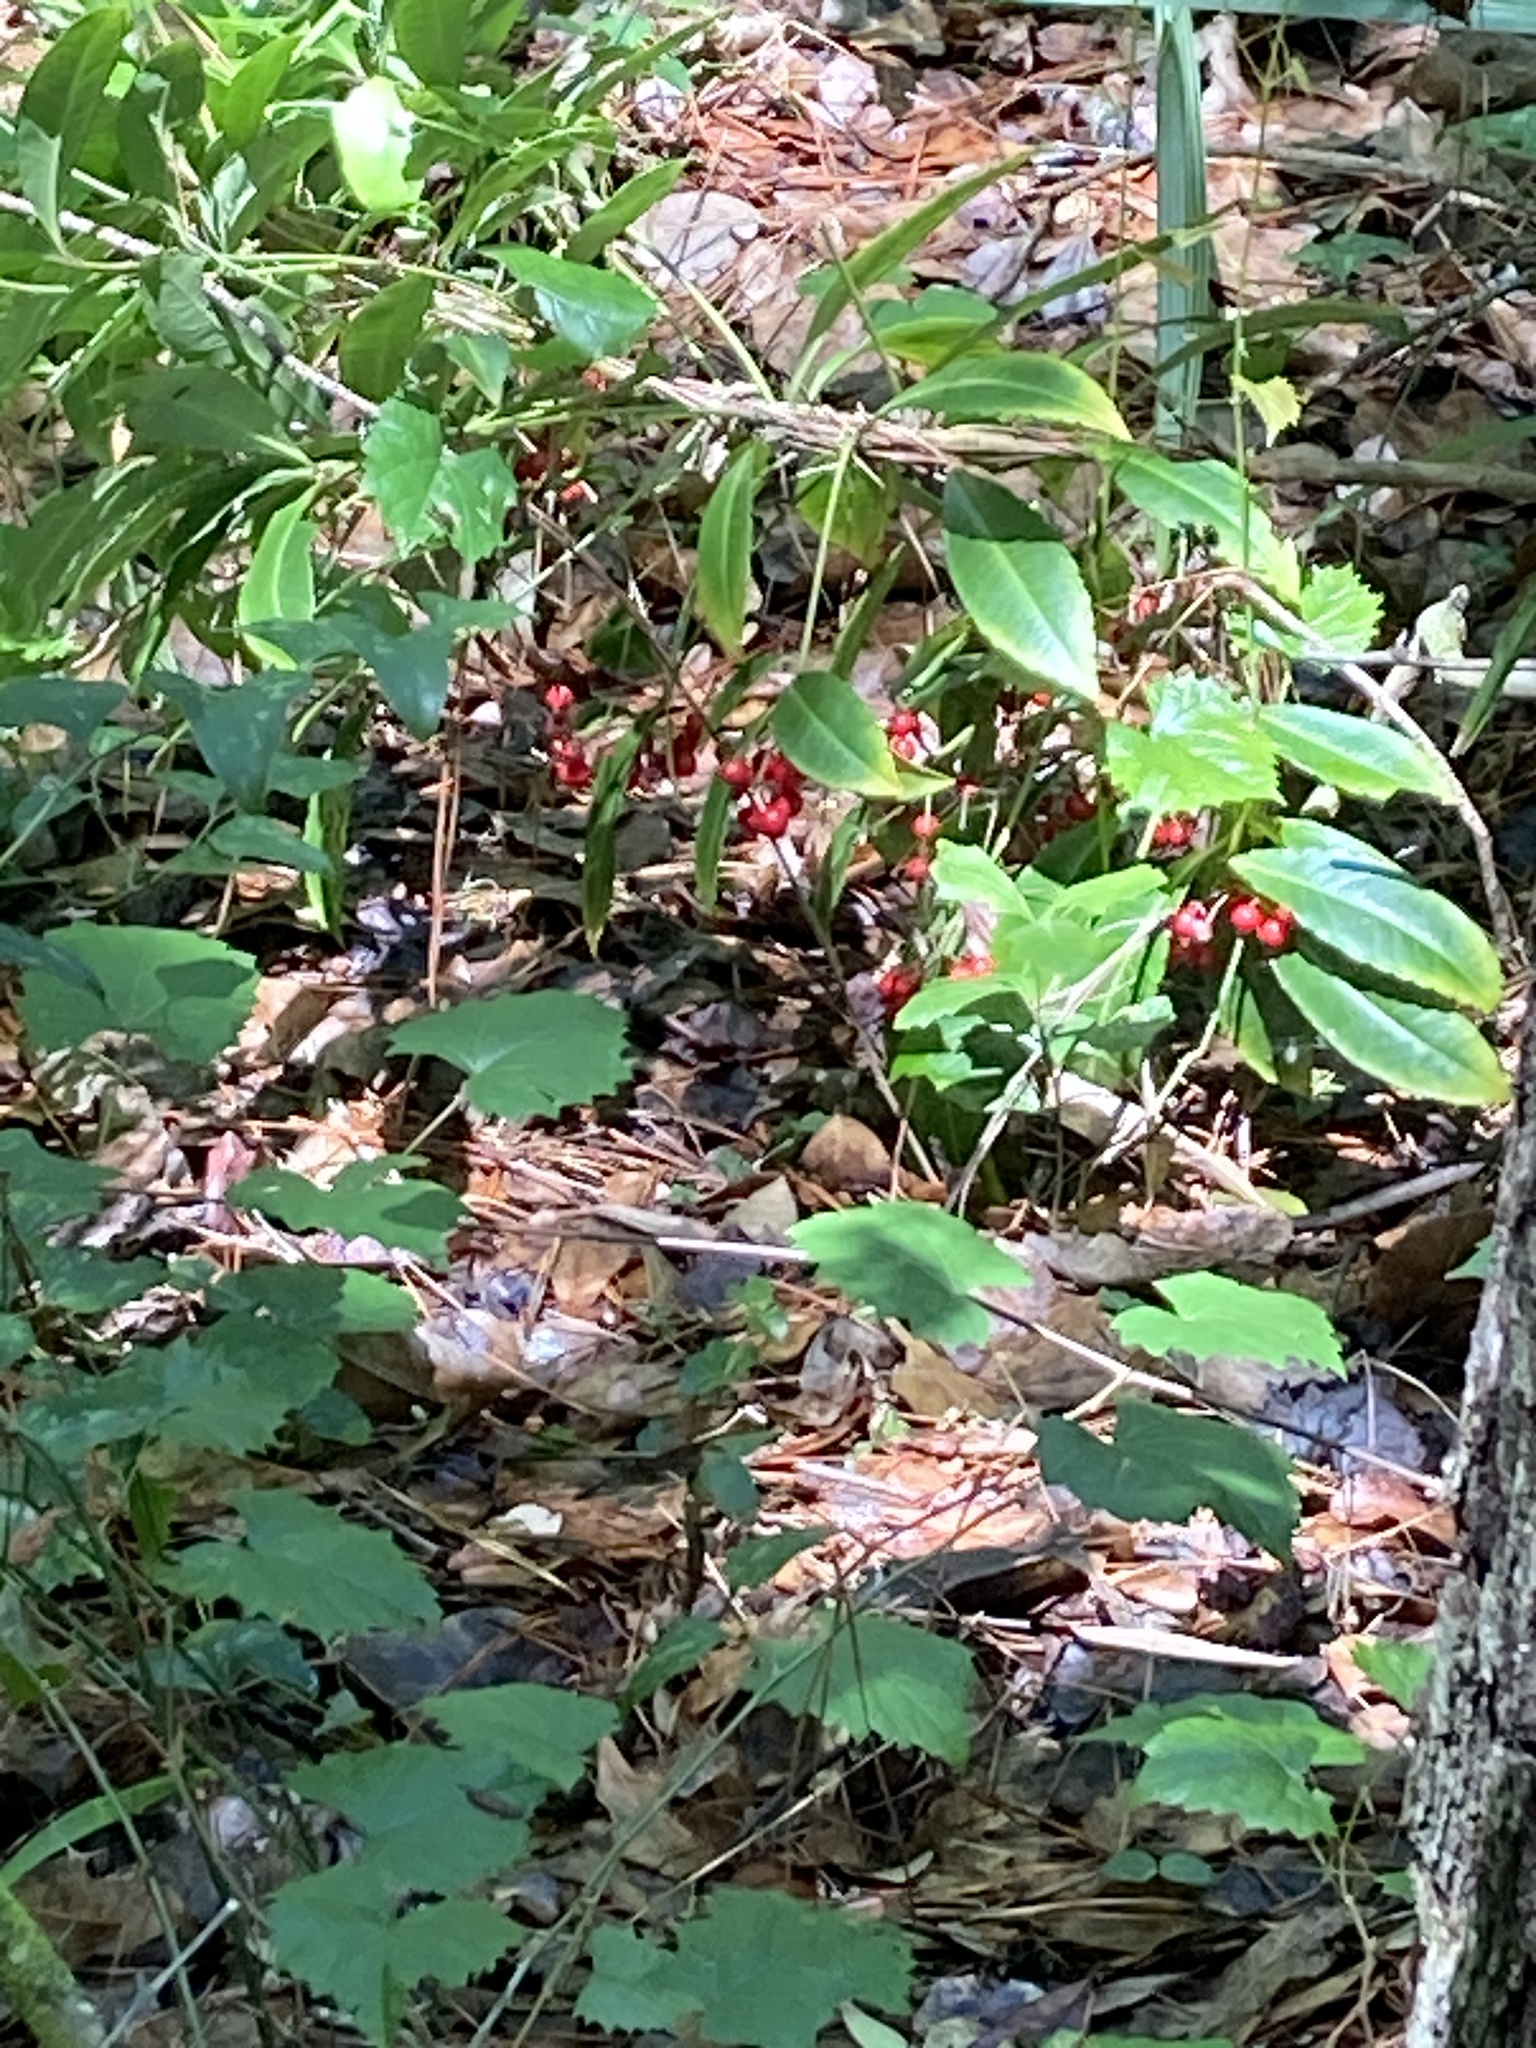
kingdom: Plantae
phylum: Tracheophyta
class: Magnoliopsida
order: Ericales
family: Primulaceae
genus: Ardisia
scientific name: Ardisia crenata
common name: Hen's eyes
